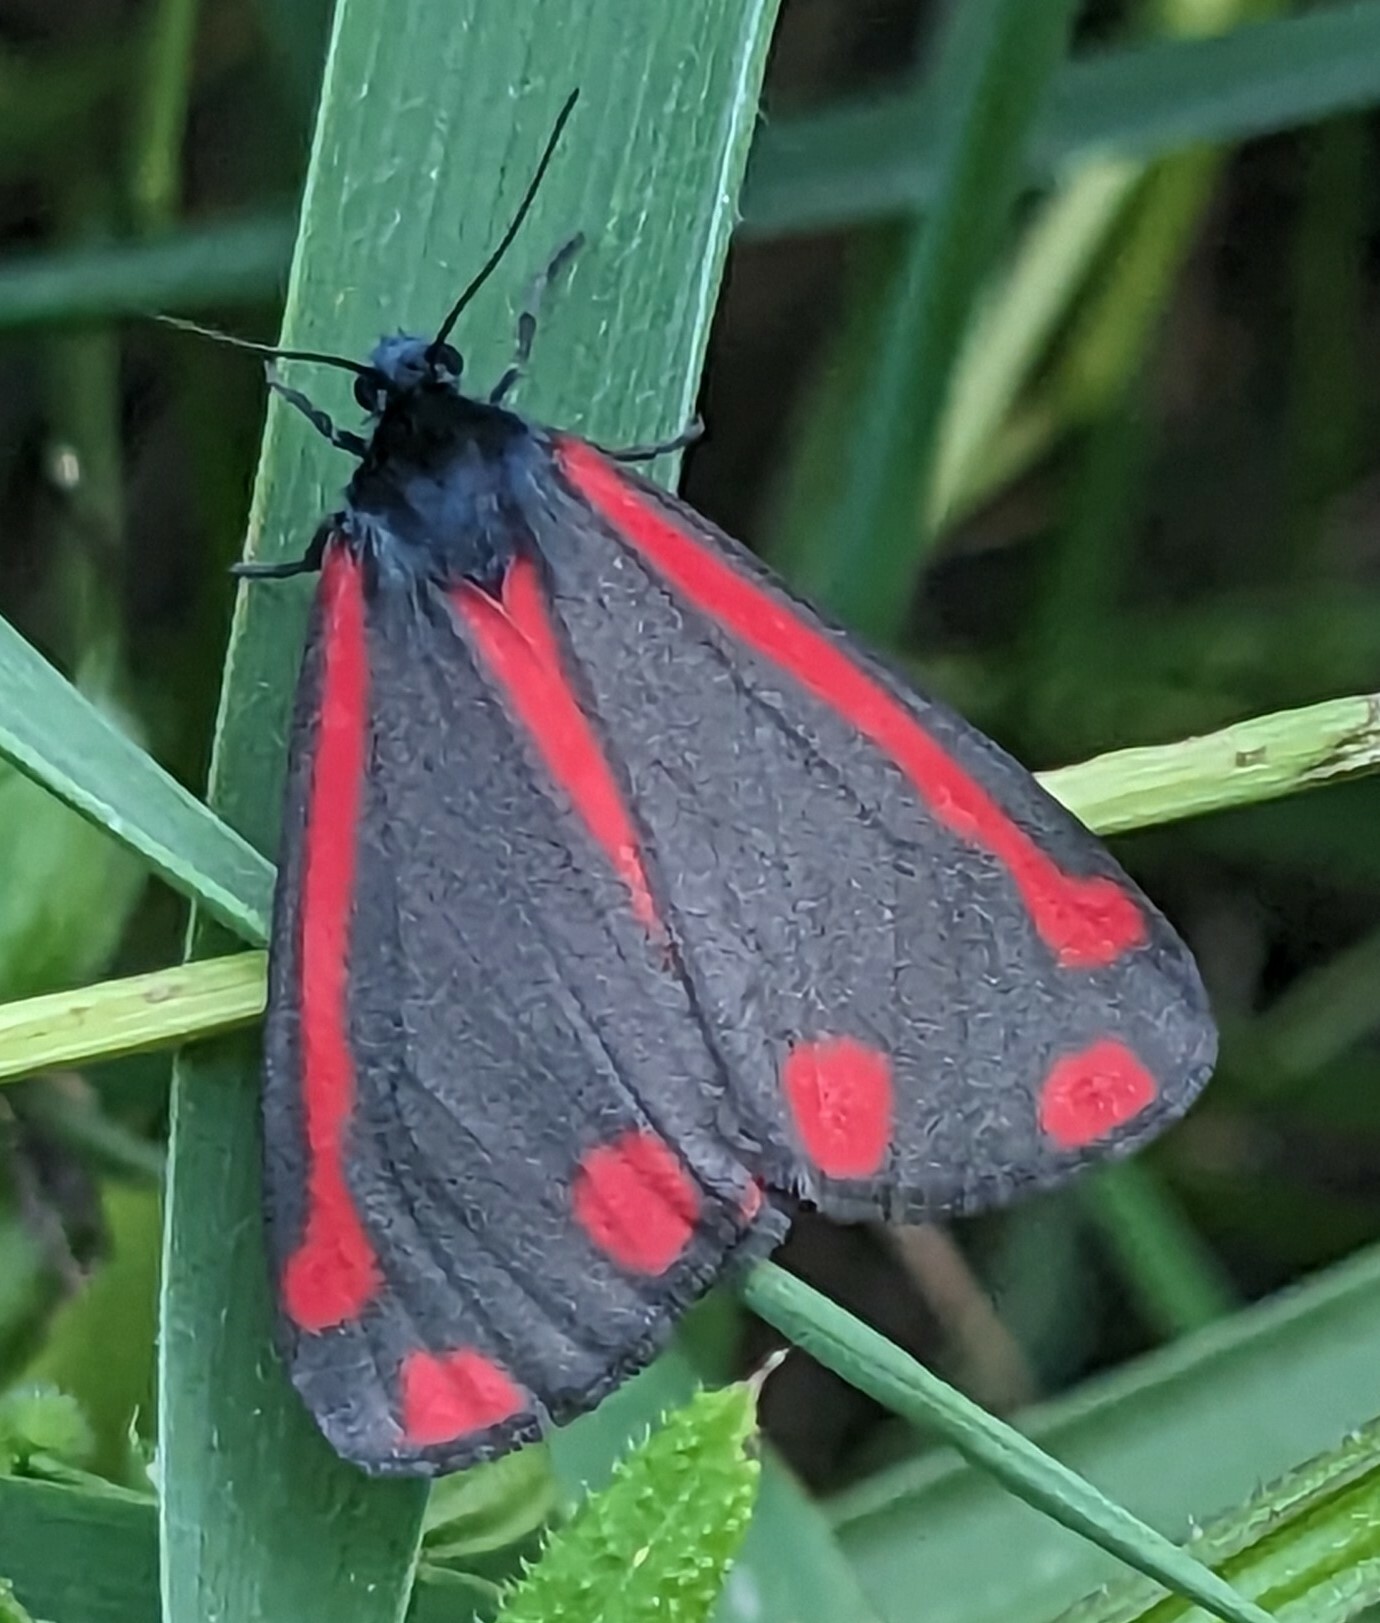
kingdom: Animalia
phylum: Arthropoda
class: Insecta
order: Lepidoptera
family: Erebidae
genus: Tyria
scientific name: Tyria jacobaeae
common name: Cinnabar
